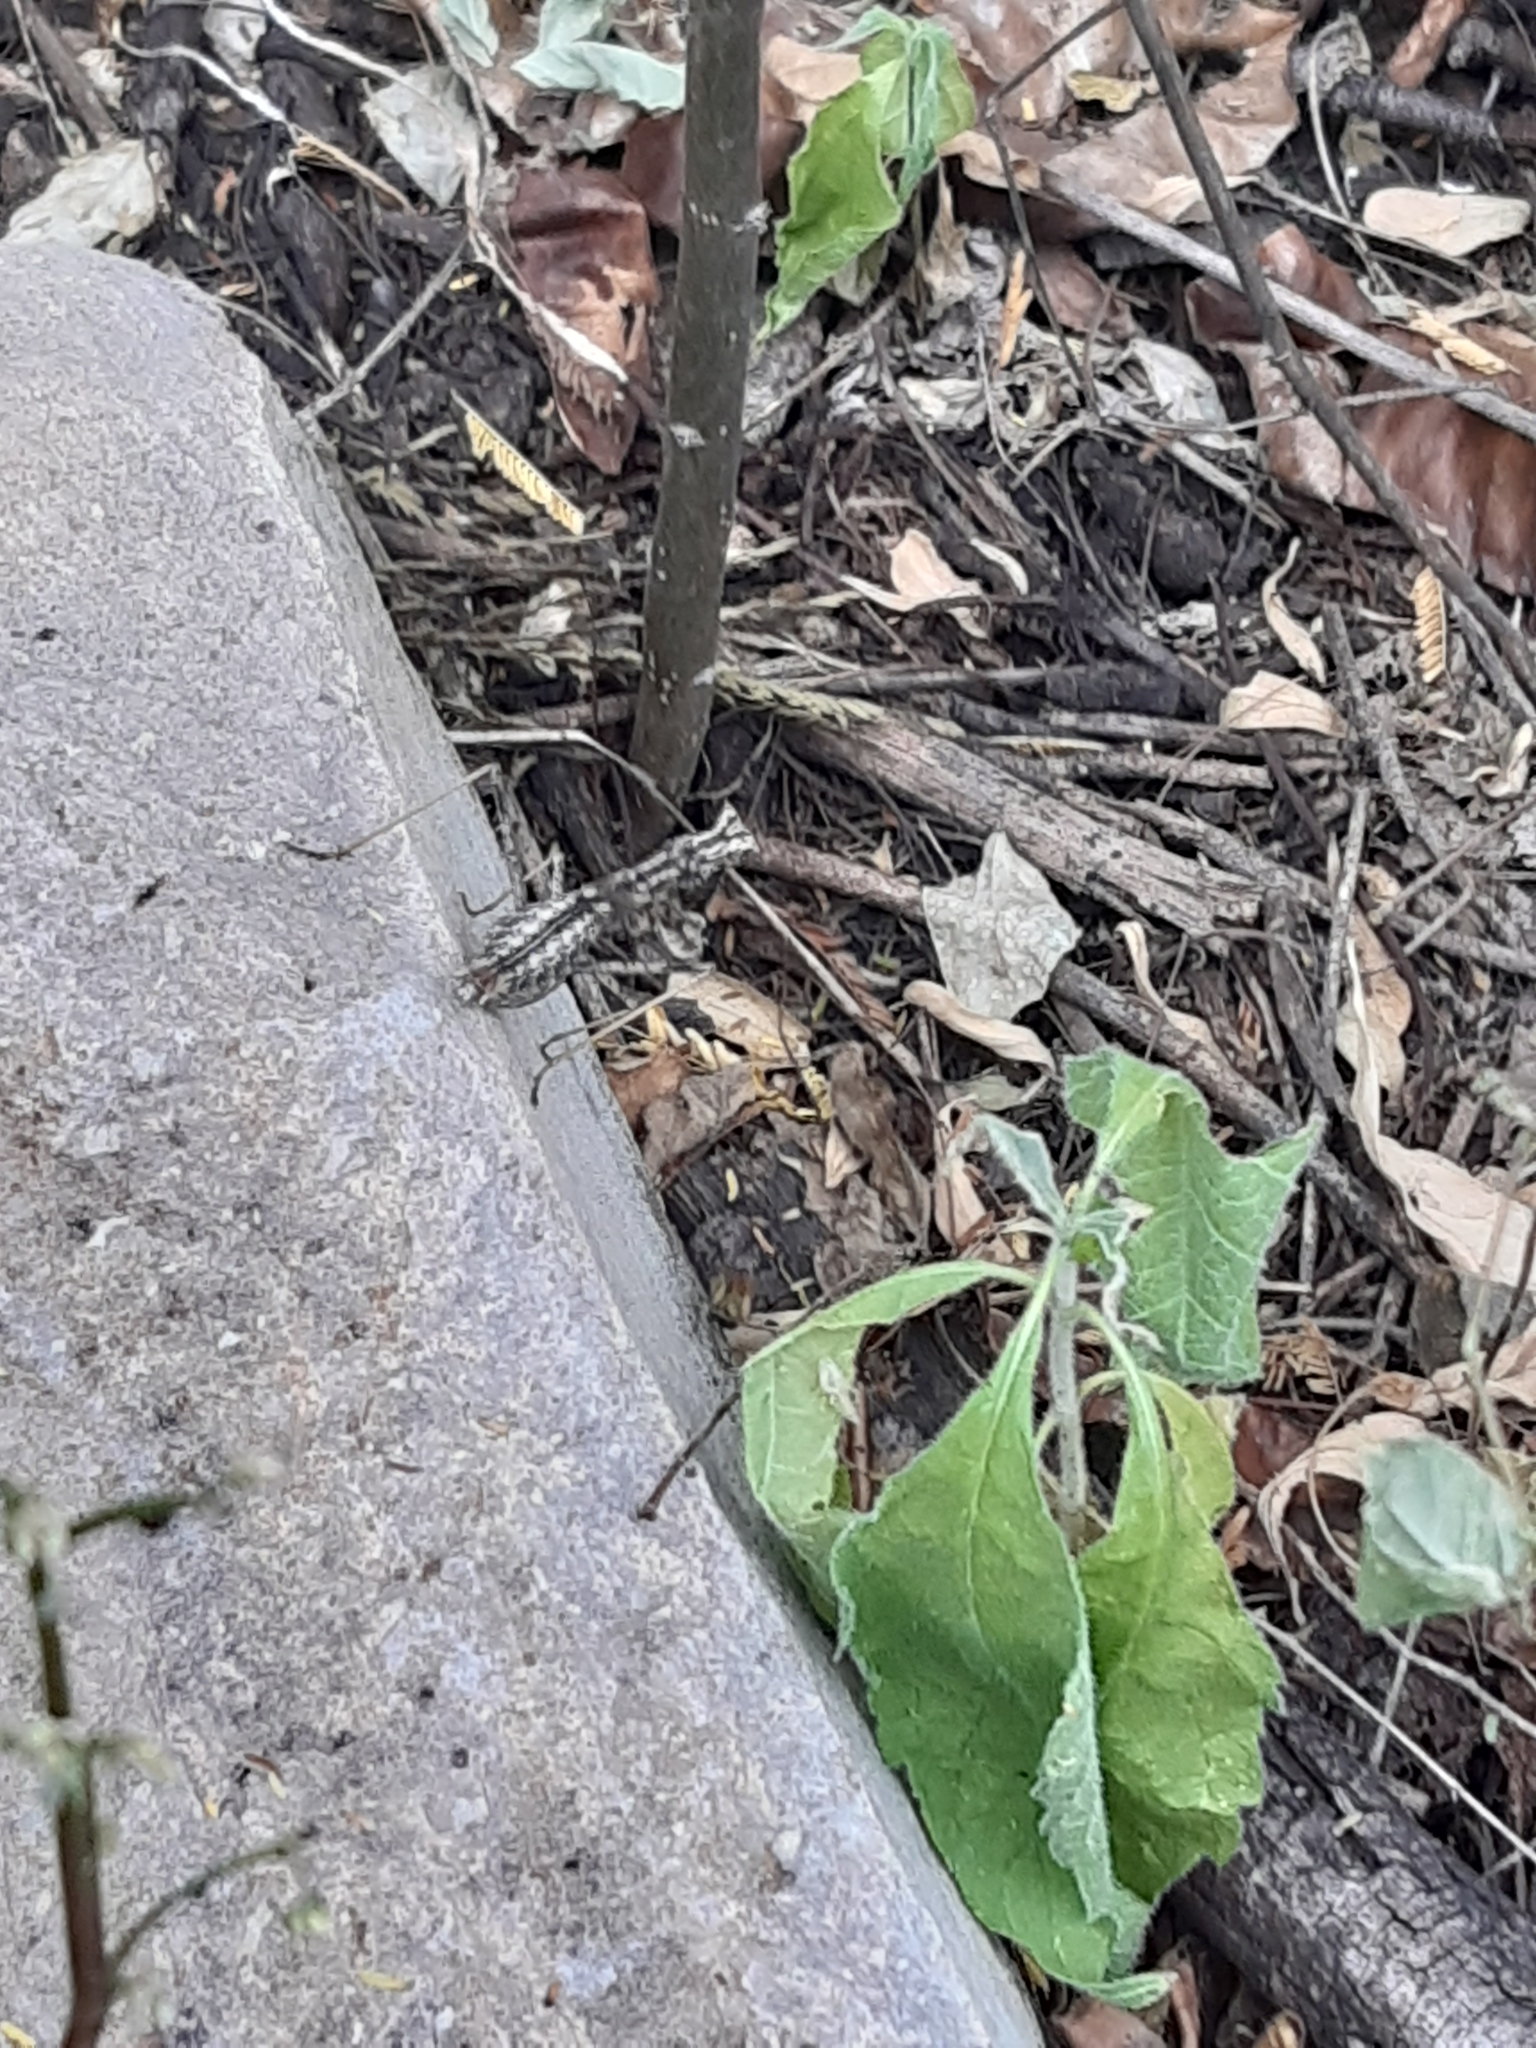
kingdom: Animalia
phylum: Arthropoda
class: Insecta
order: Mantodea
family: Amelidae
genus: Yersinia
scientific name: Yersinia mexicana
